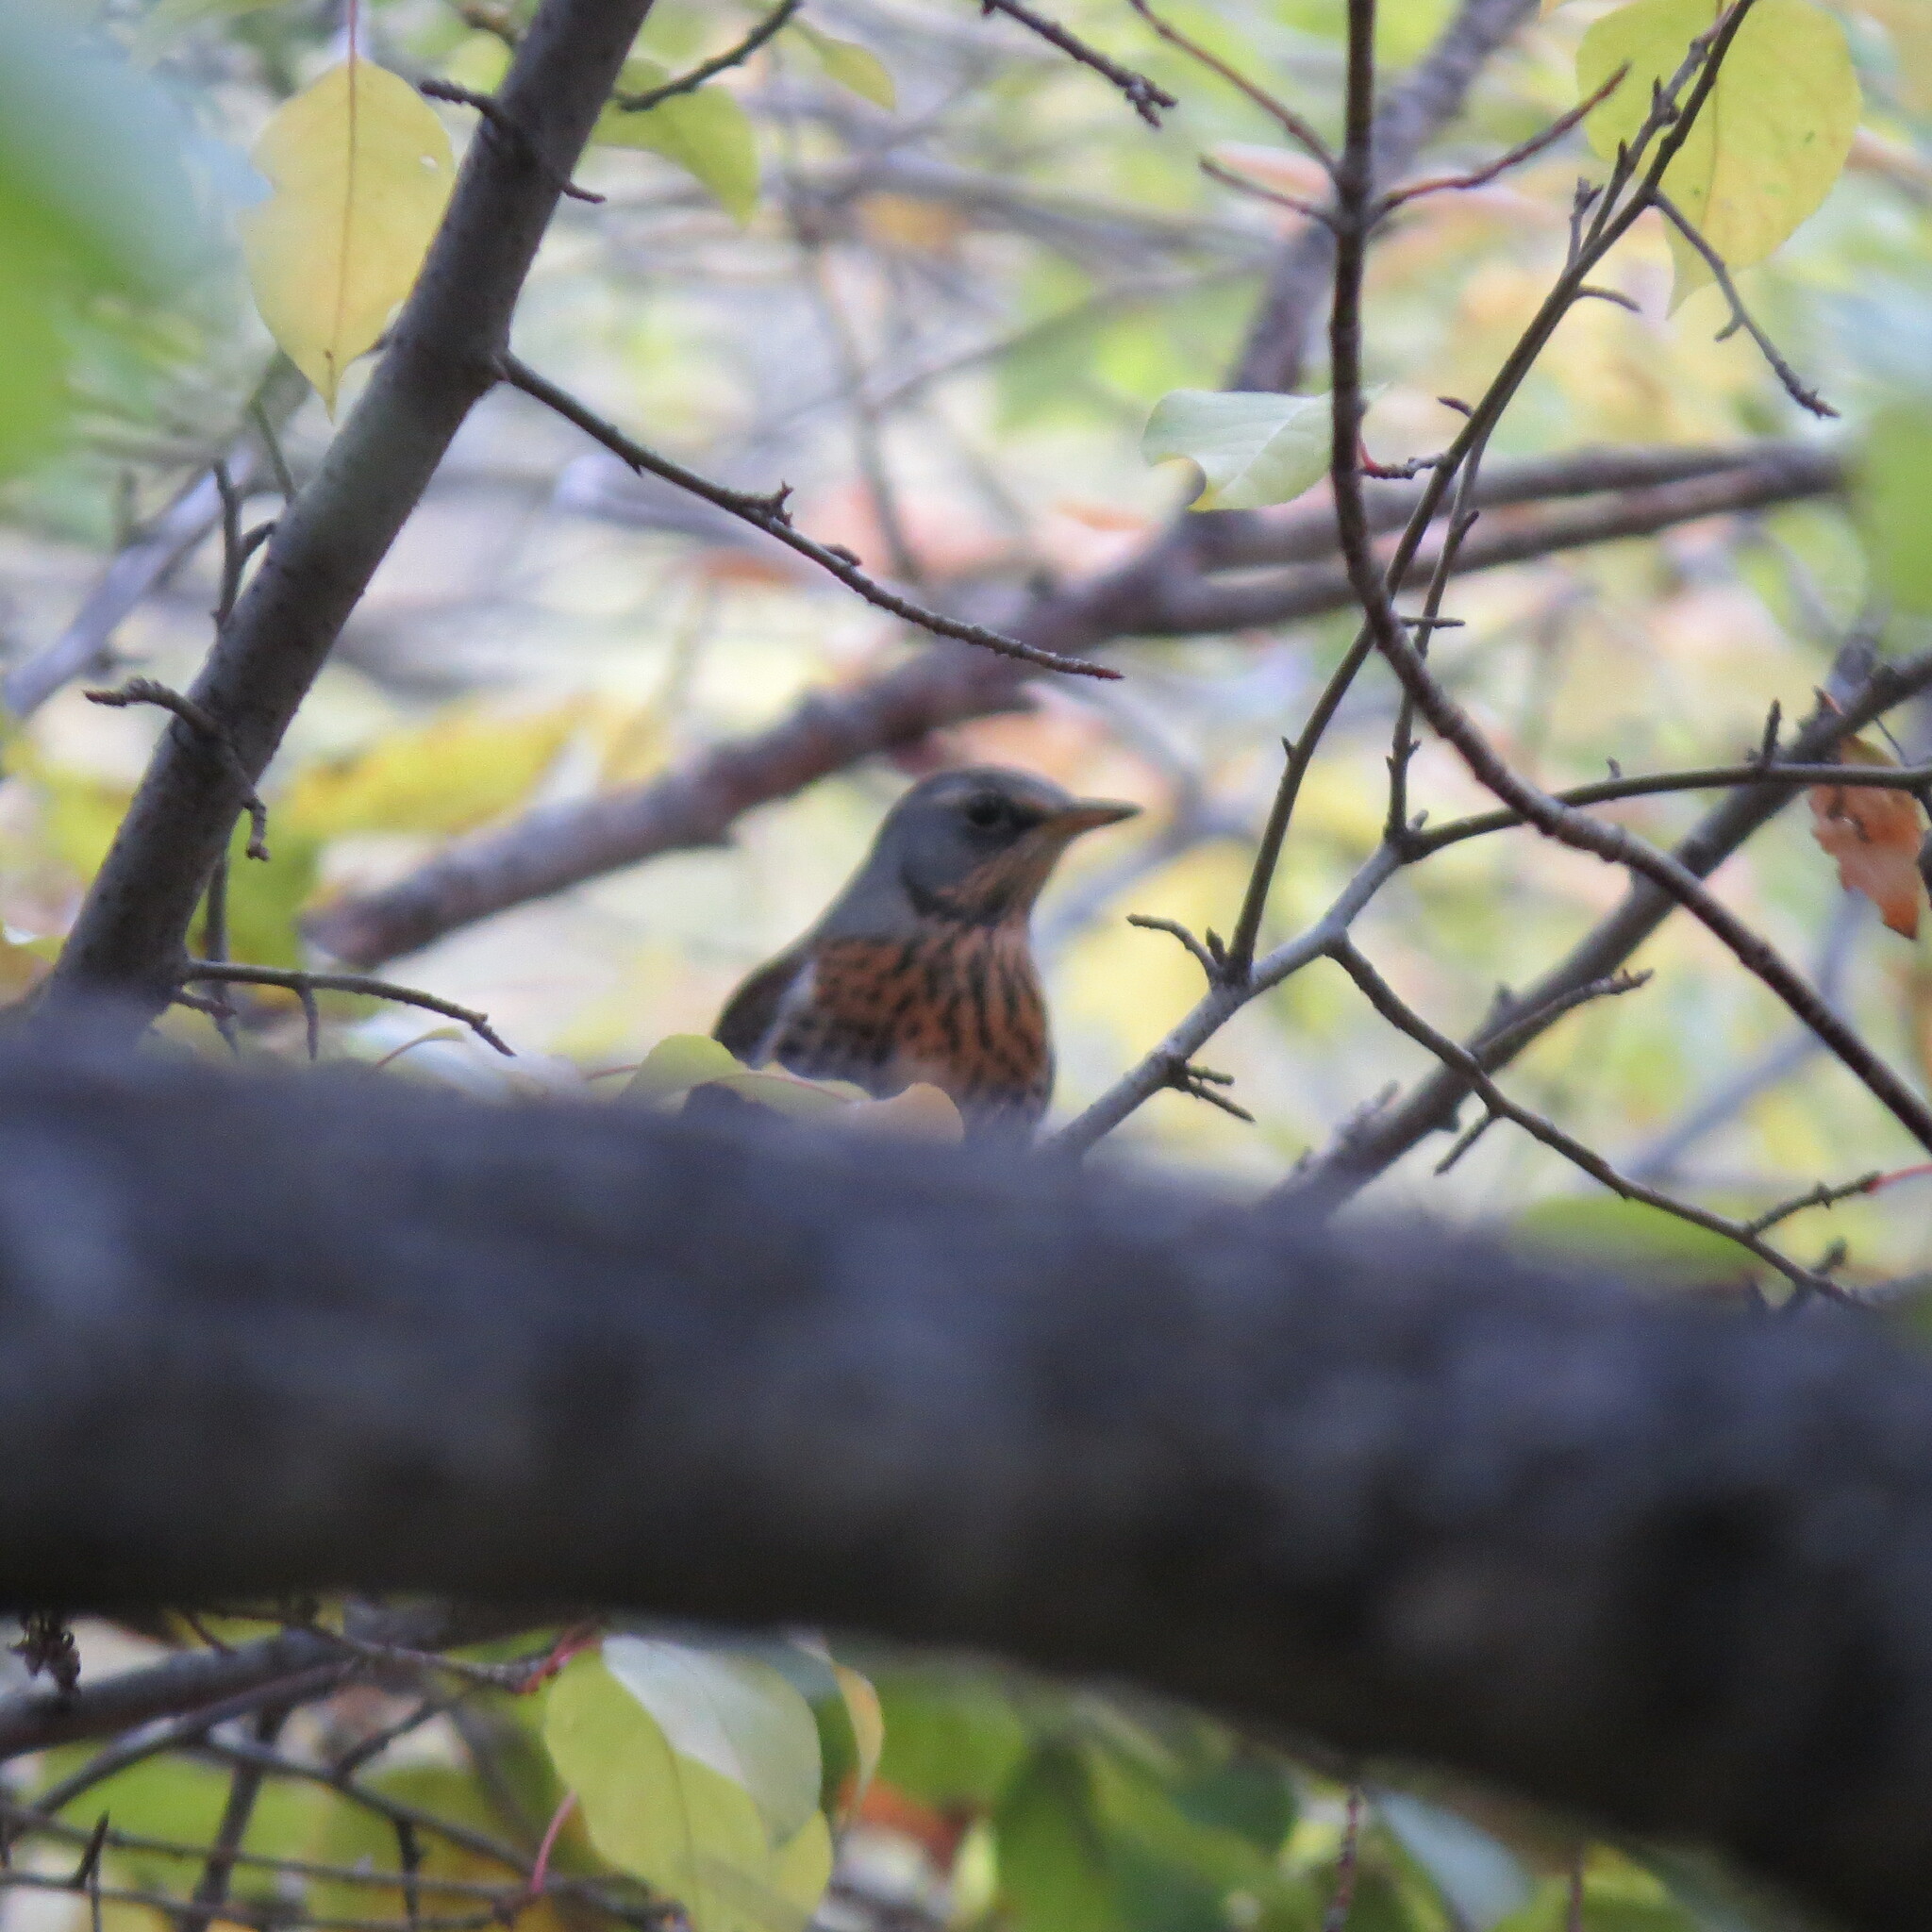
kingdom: Animalia
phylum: Chordata
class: Aves
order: Passeriformes
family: Turdidae
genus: Turdus
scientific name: Turdus pilaris
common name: Fieldfare
